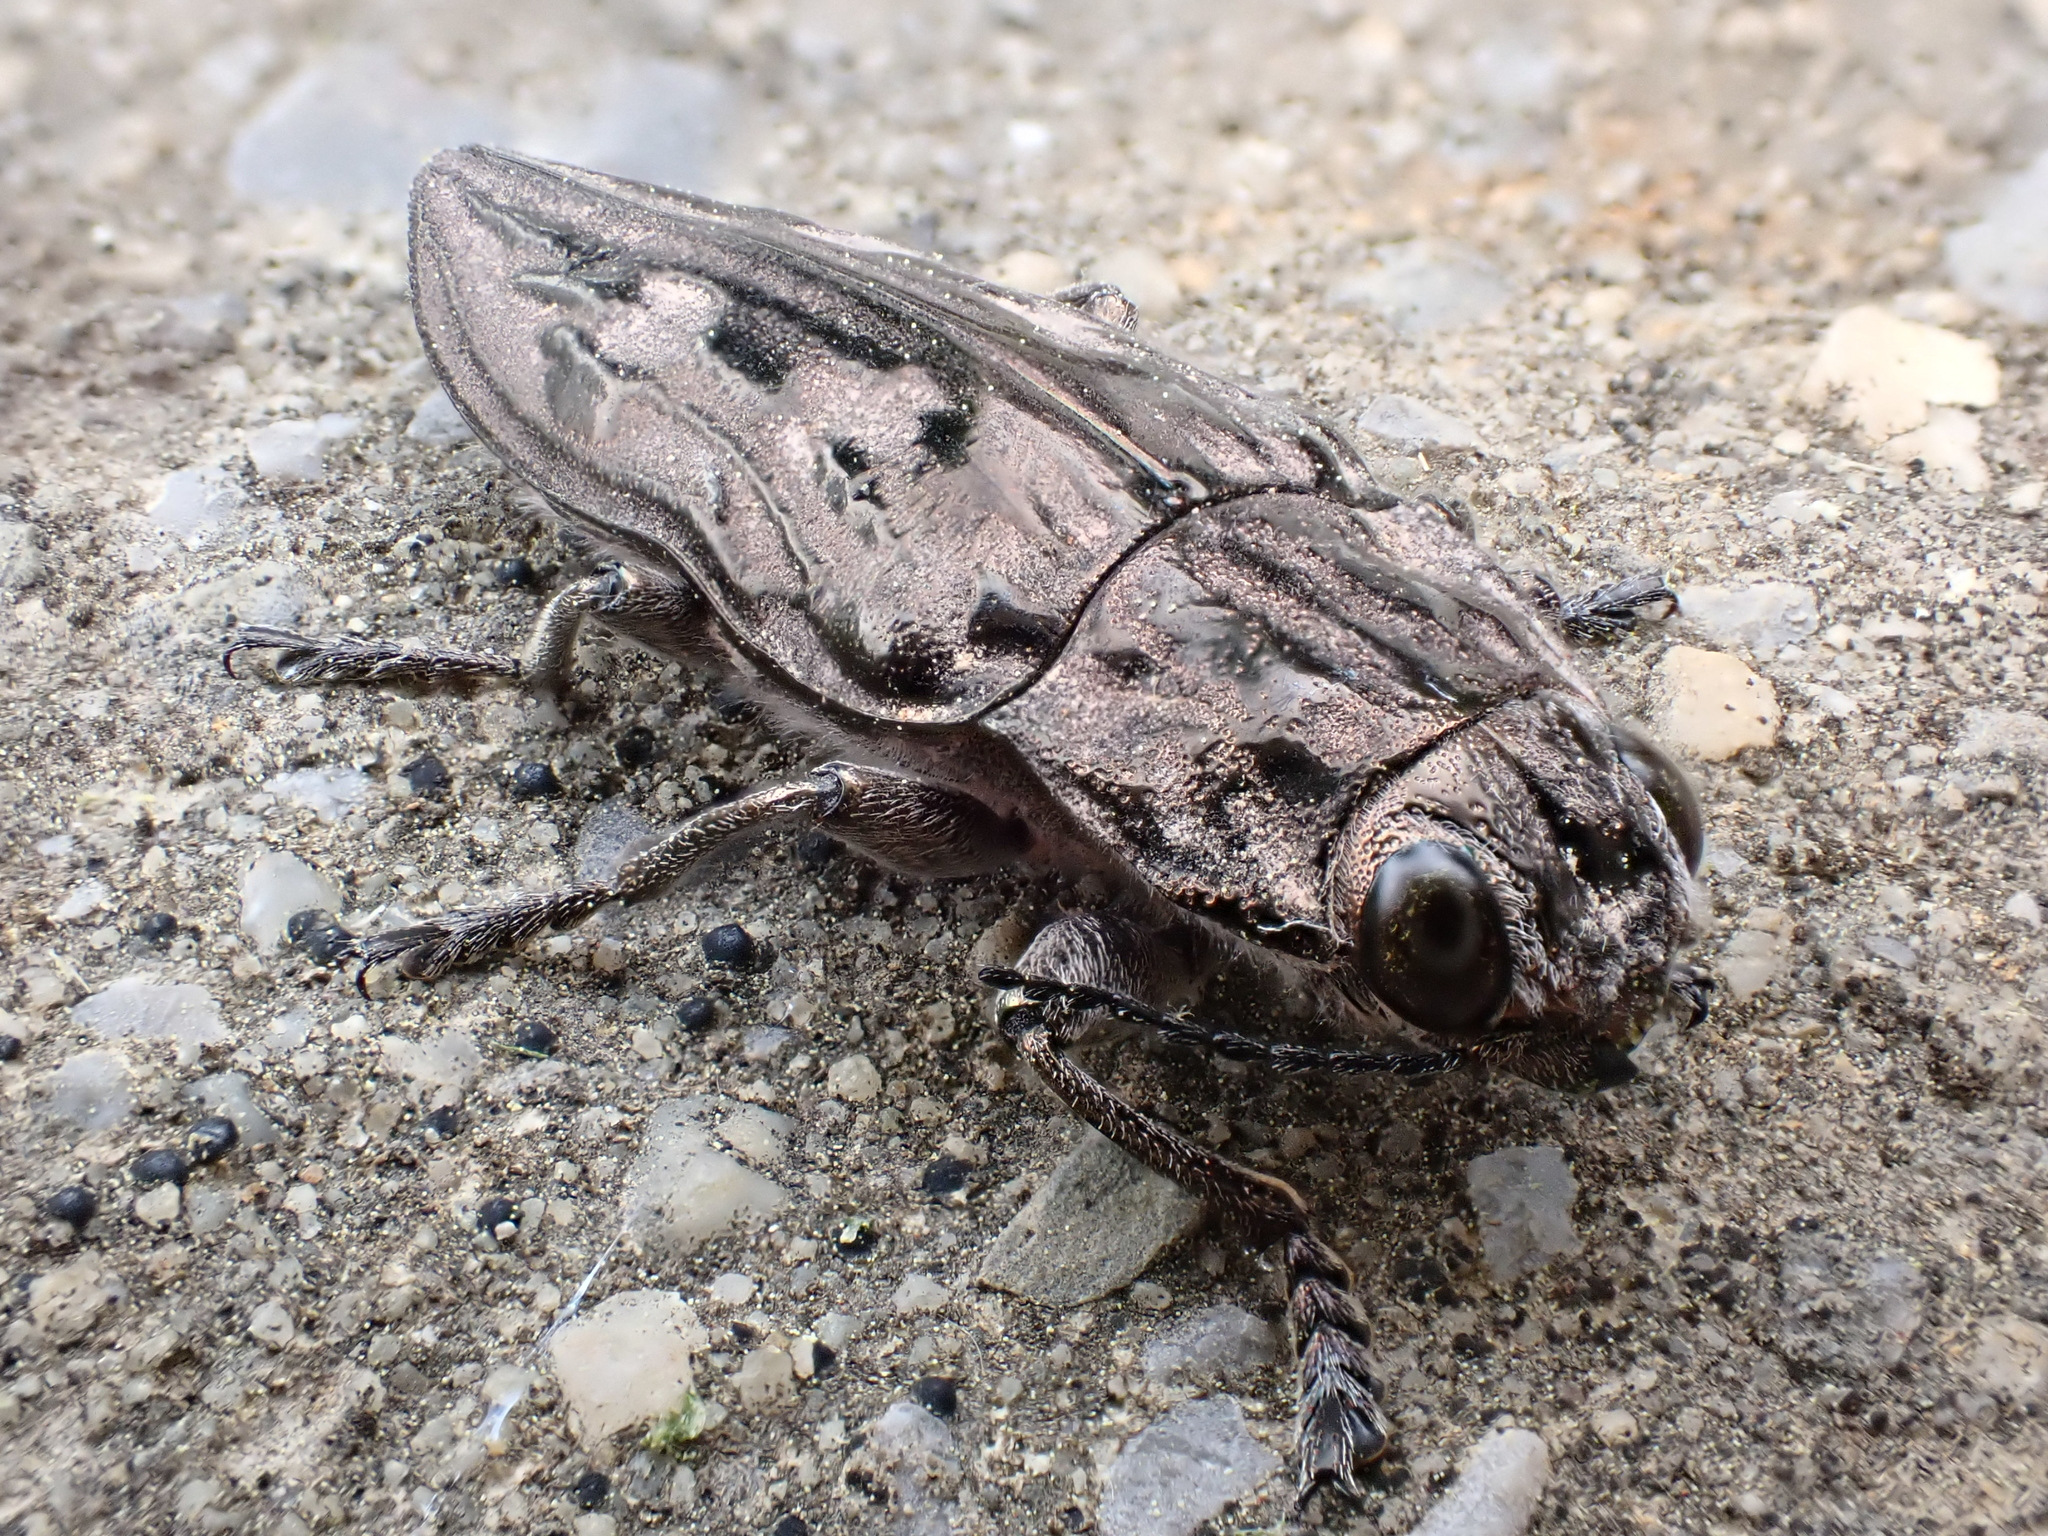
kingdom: Animalia
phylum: Arthropoda
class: Insecta
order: Coleoptera
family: Buprestidae
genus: Chalcophora
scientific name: Chalcophora virginiensis
